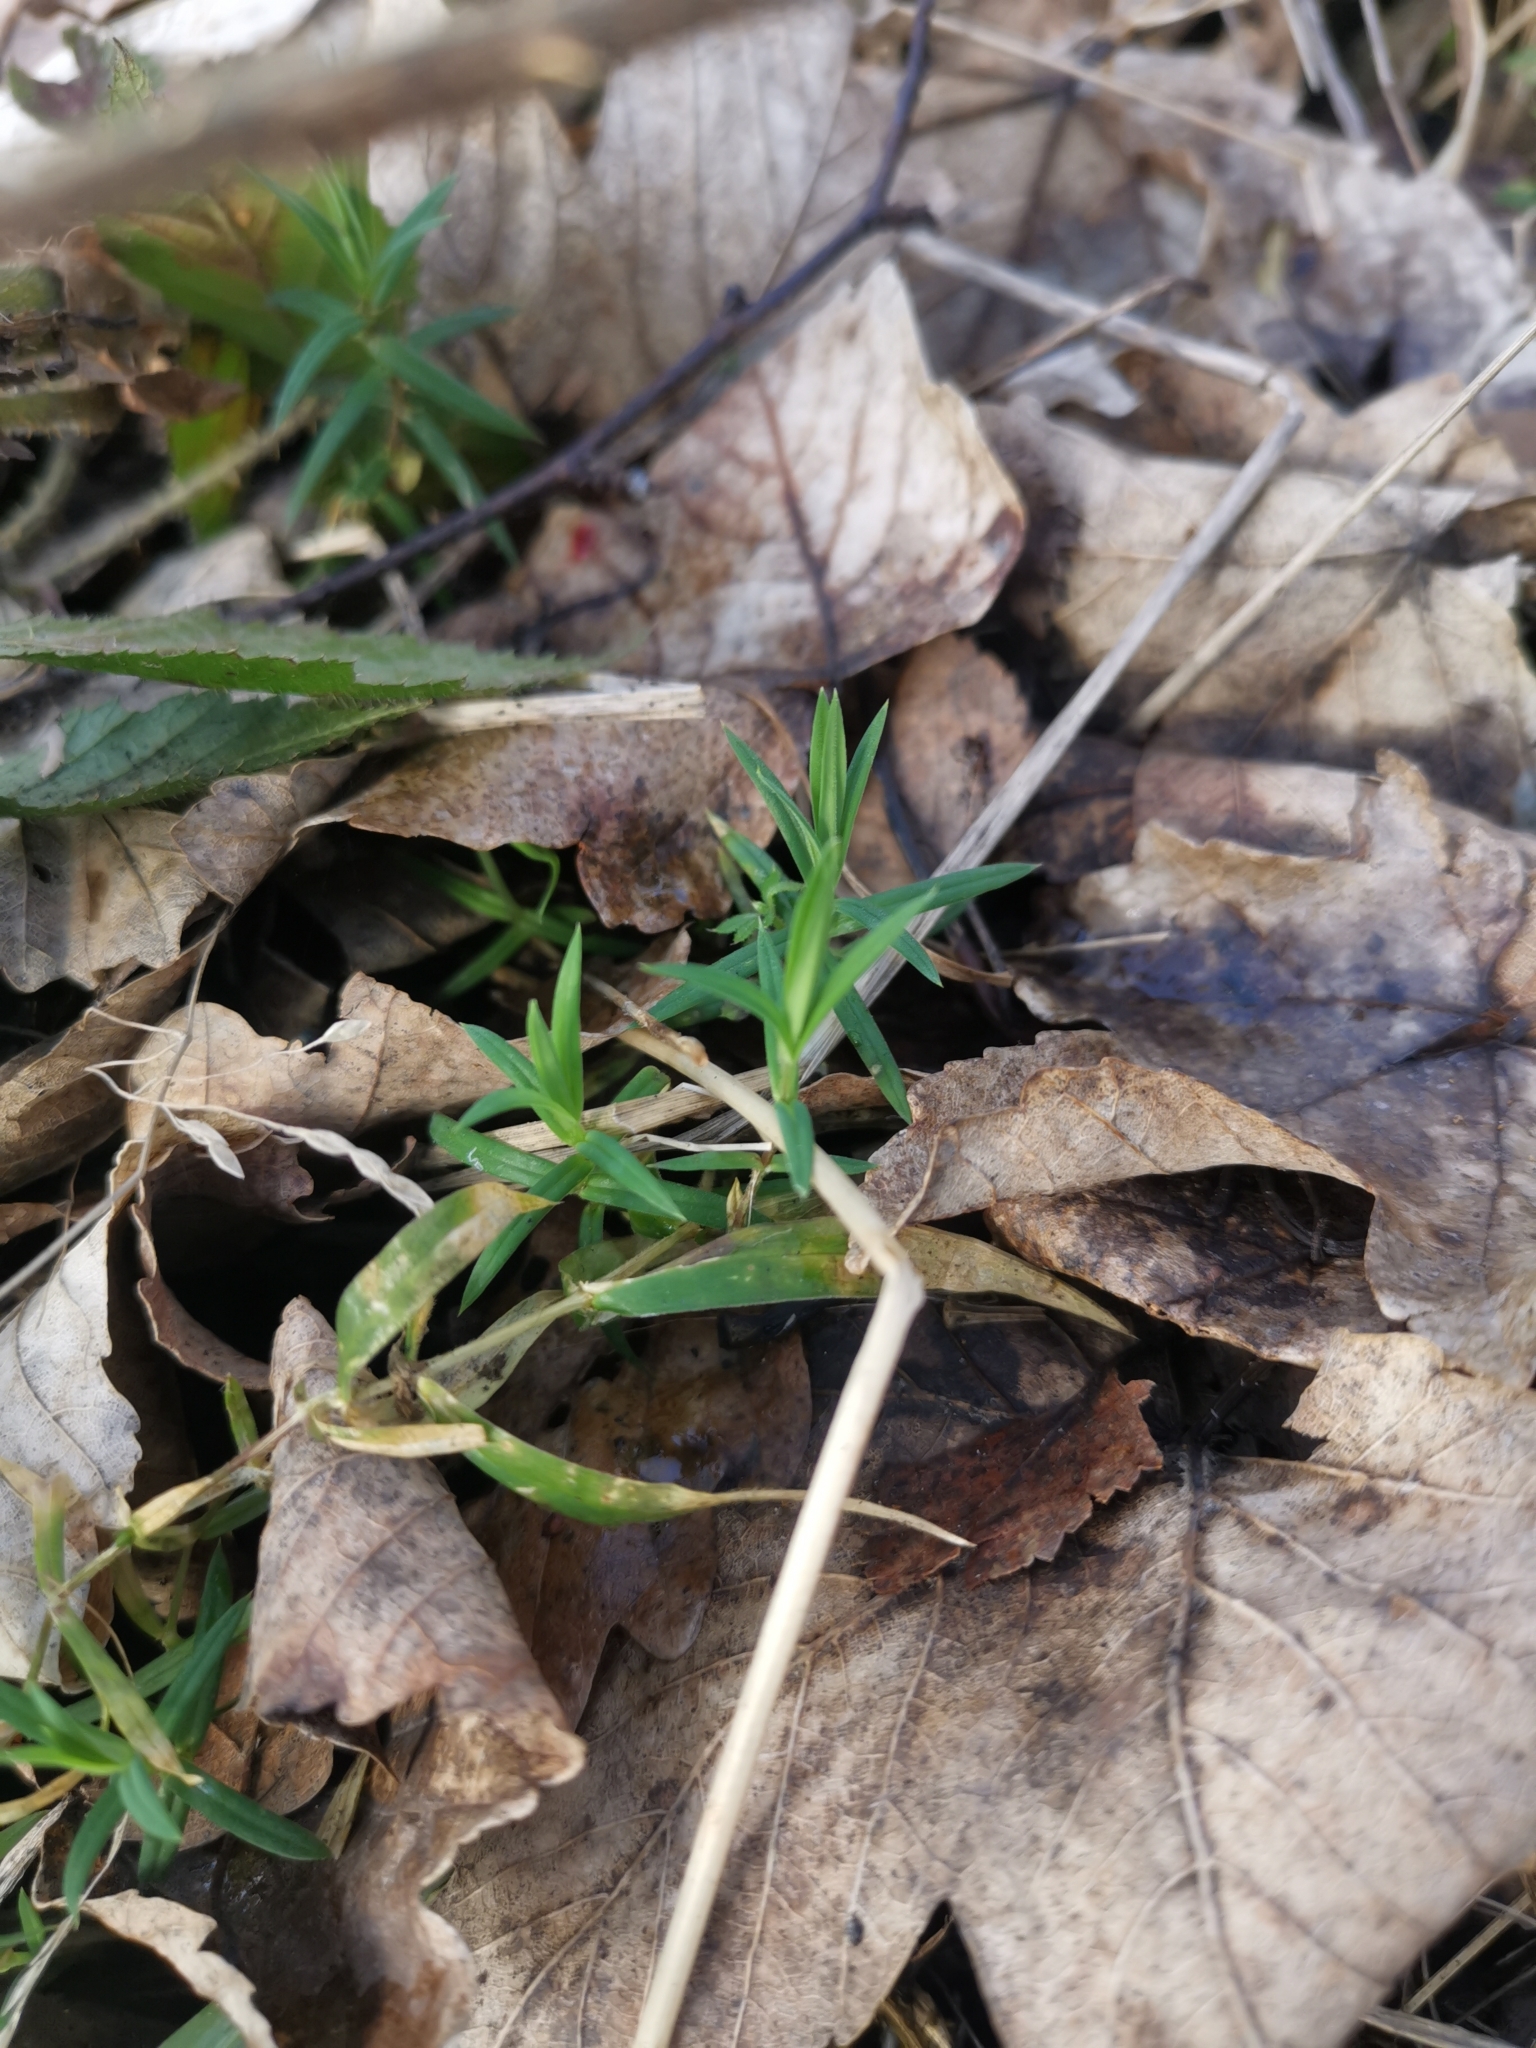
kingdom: Plantae
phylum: Tracheophyta
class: Magnoliopsida
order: Caryophyllales
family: Caryophyllaceae
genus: Rabelera
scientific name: Rabelera holostea
